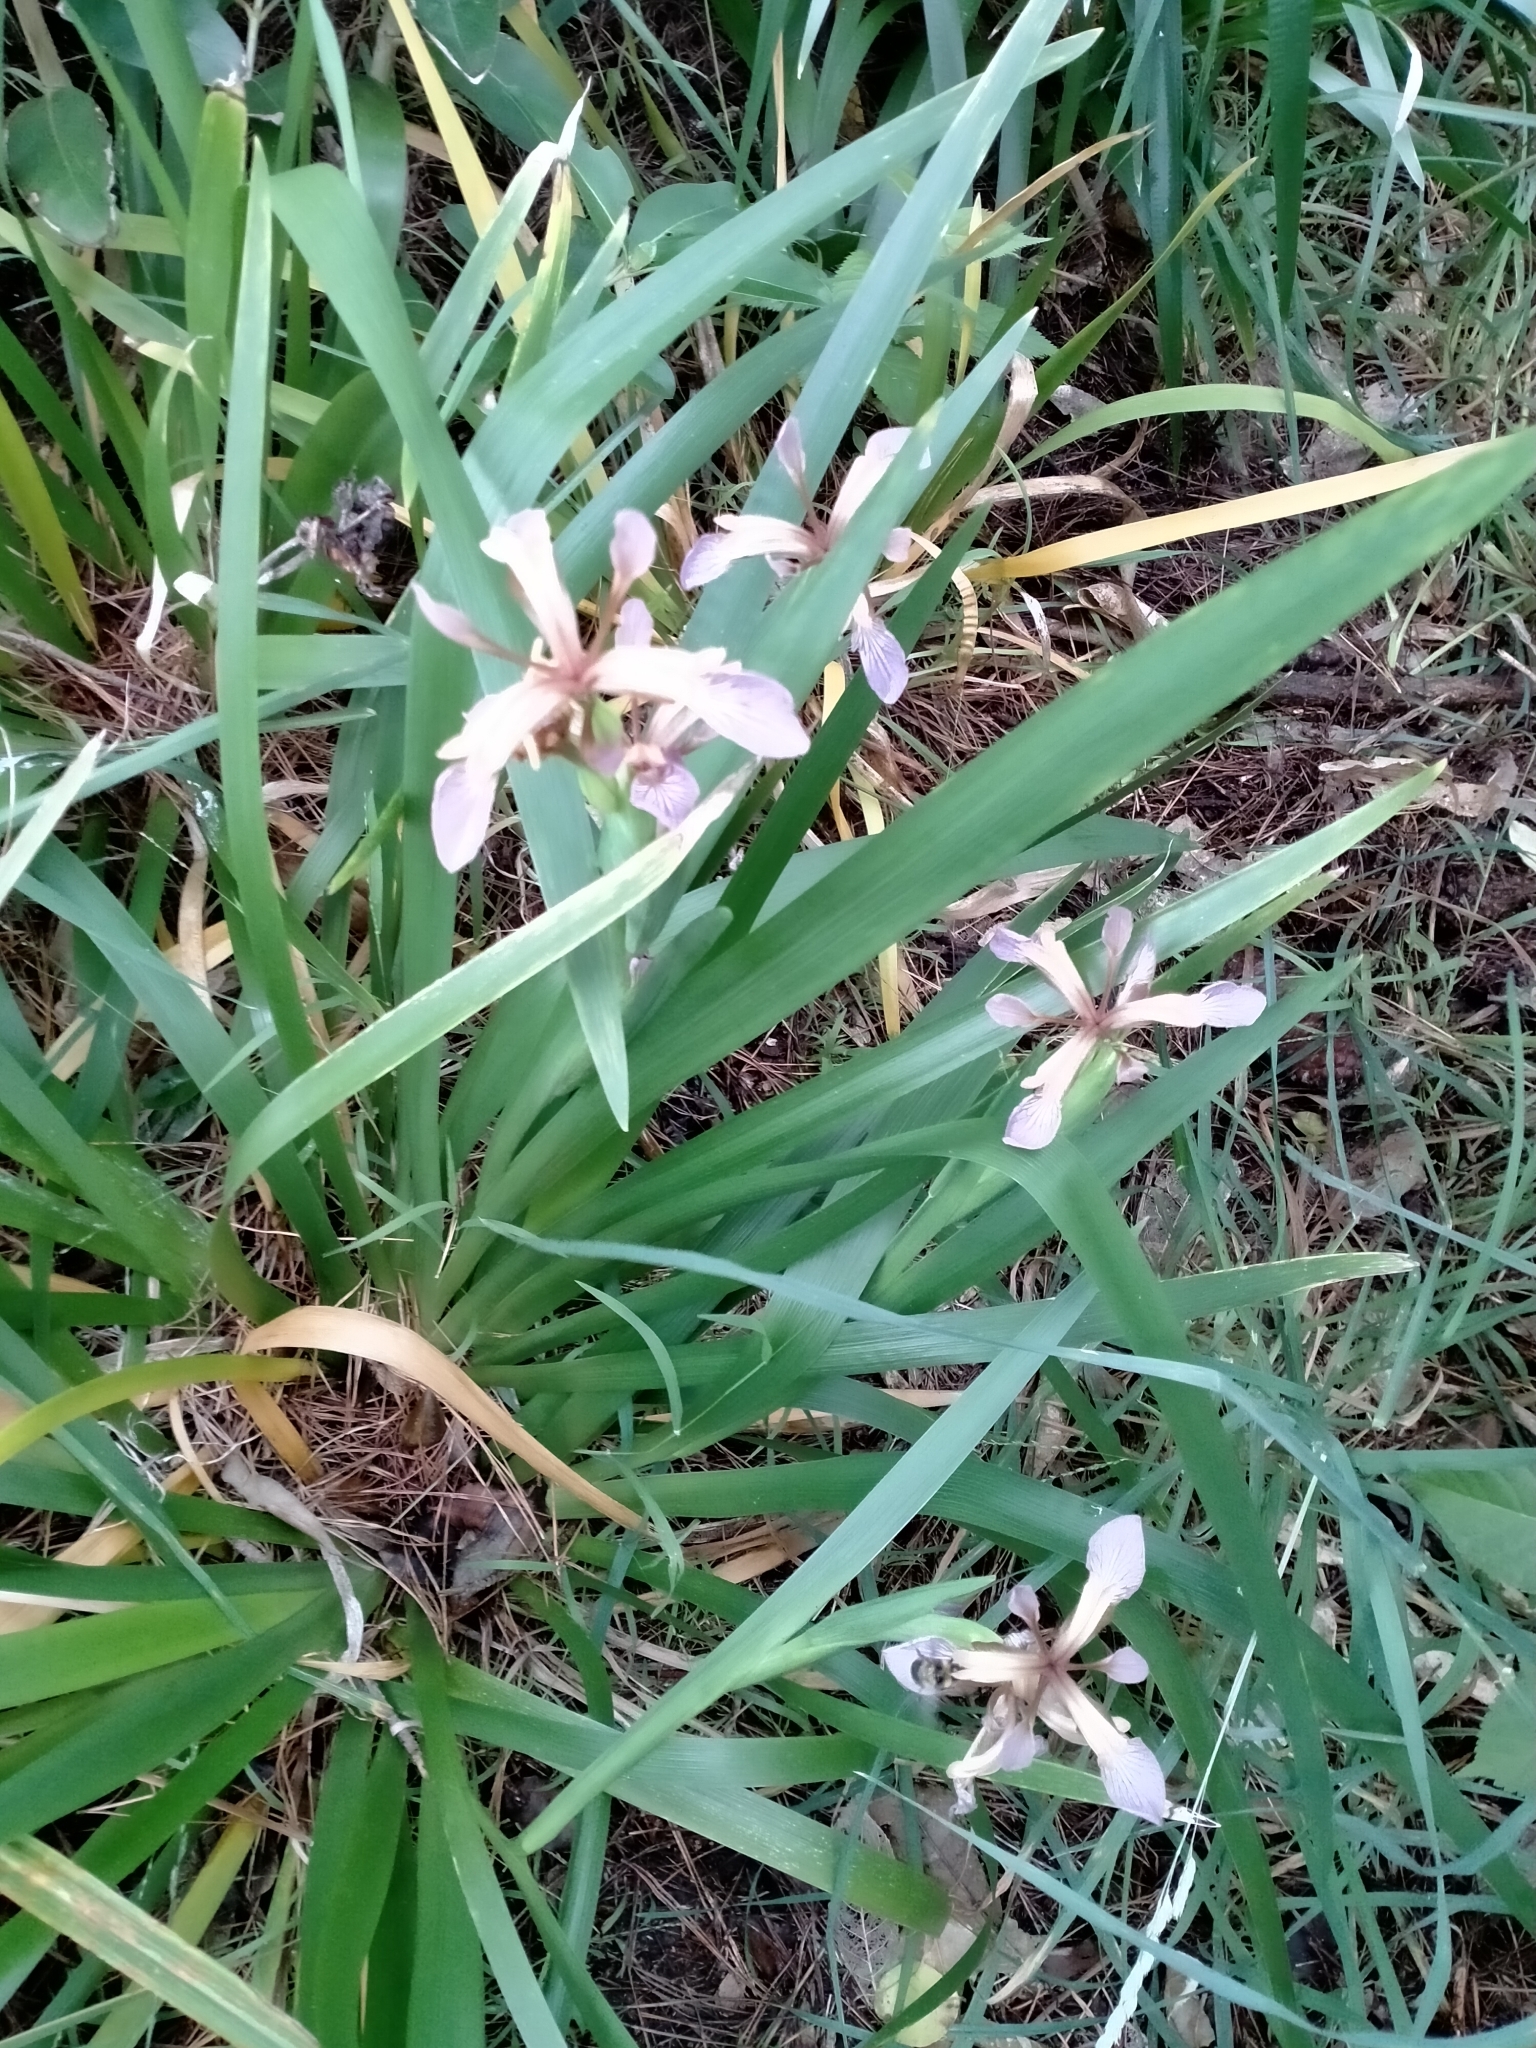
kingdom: Plantae
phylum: Tracheophyta
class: Liliopsida
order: Asparagales
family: Iridaceae
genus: Iris
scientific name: Iris foetidissima
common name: Stinking iris
